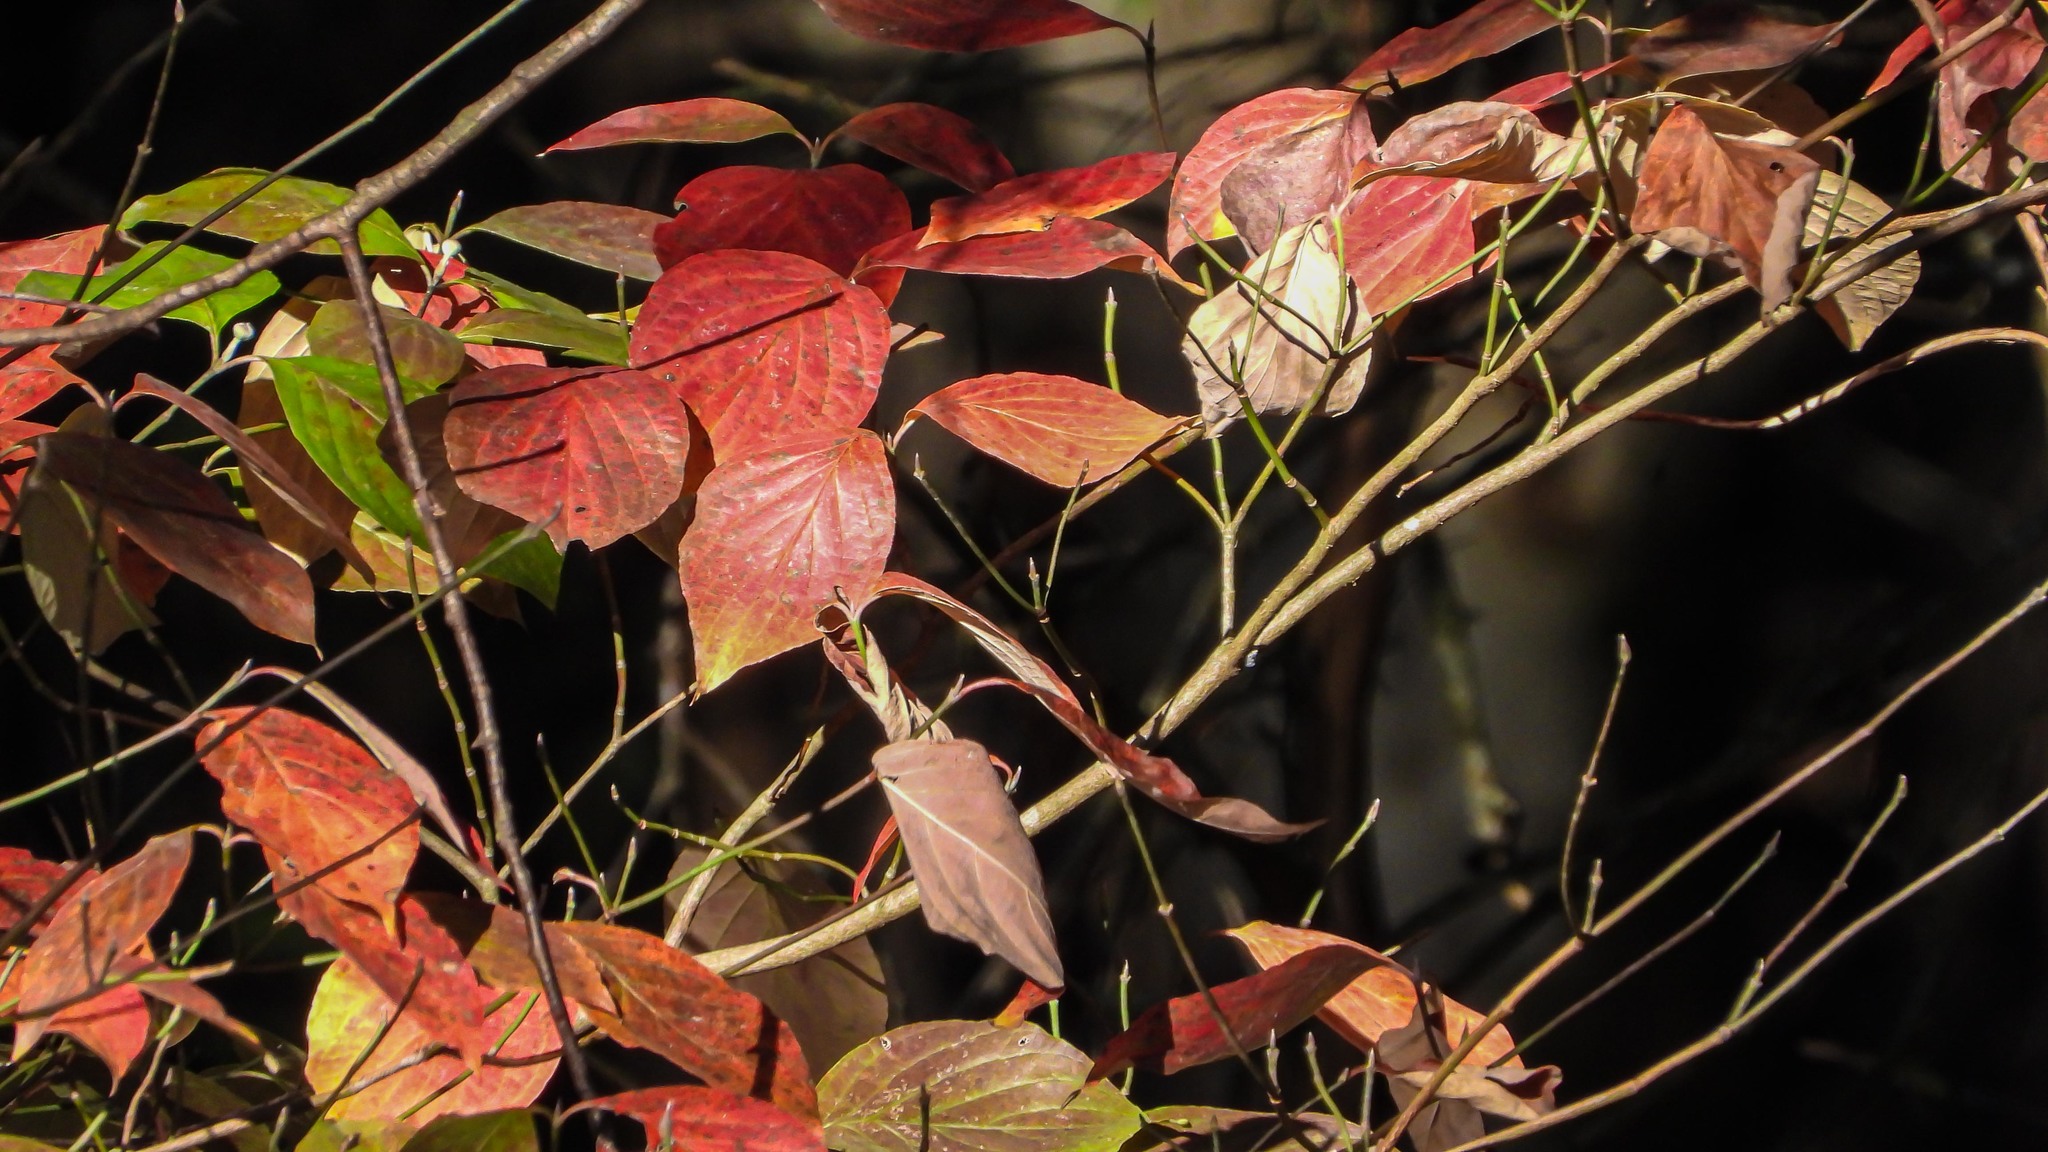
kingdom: Plantae
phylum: Tracheophyta
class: Magnoliopsida
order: Cornales
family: Cornaceae
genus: Cornus
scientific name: Cornus florida
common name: Flowering dogwood
